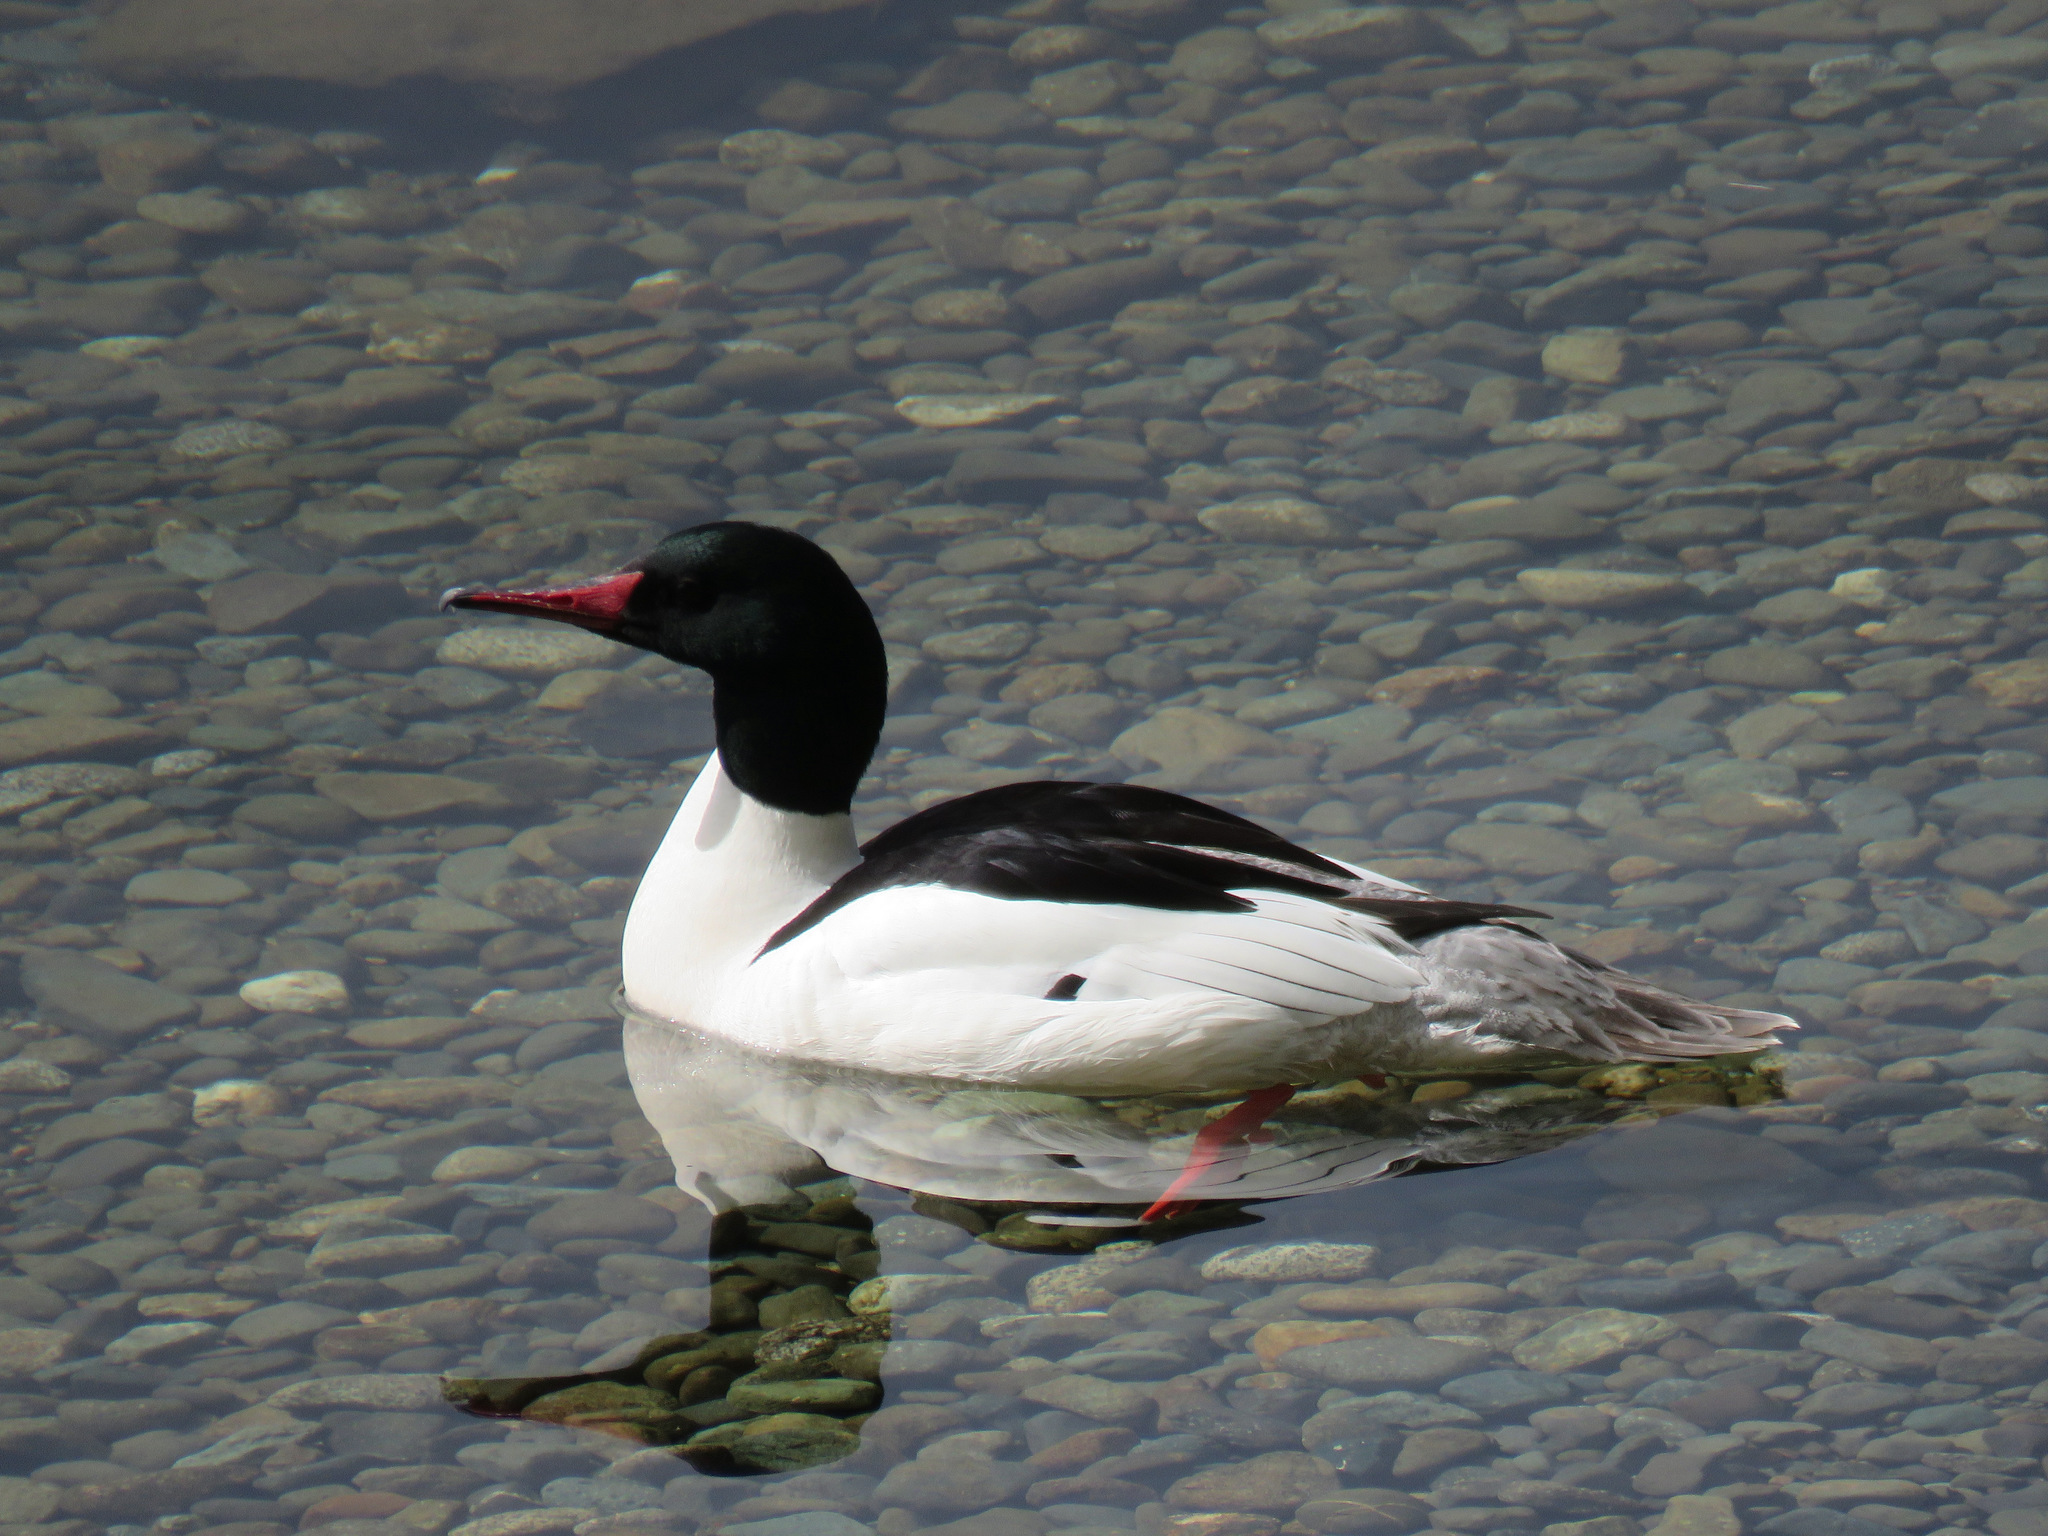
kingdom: Animalia
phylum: Chordata
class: Aves
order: Anseriformes
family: Anatidae
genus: Mergus
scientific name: Mergus merganser
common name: Common merganser
